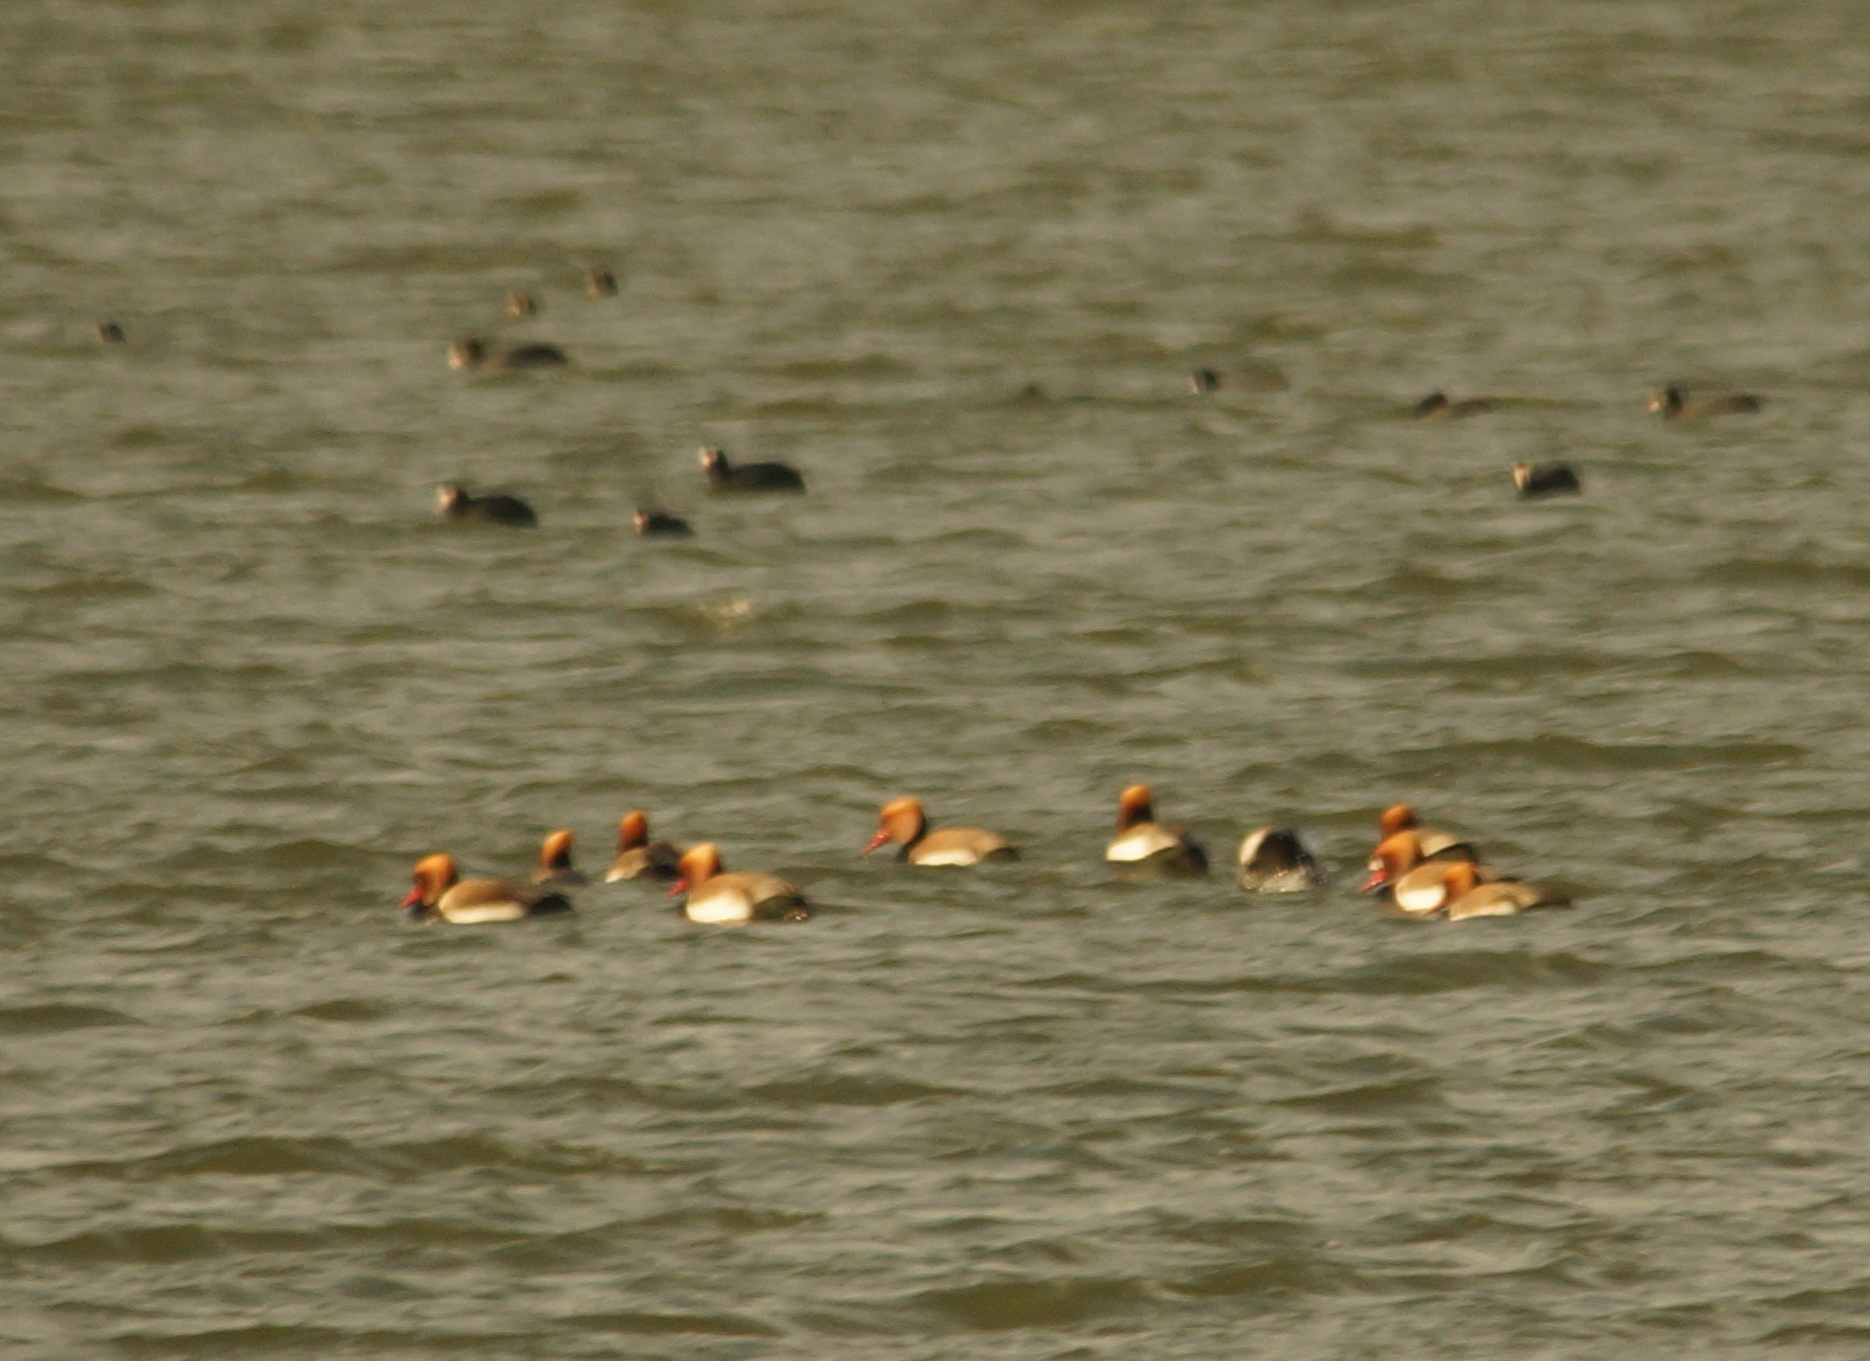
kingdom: Animalia
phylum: Chordata
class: Aves
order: Anseriformes
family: Anatidae
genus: Netta
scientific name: Netta rufina
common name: Red-crested pochard
